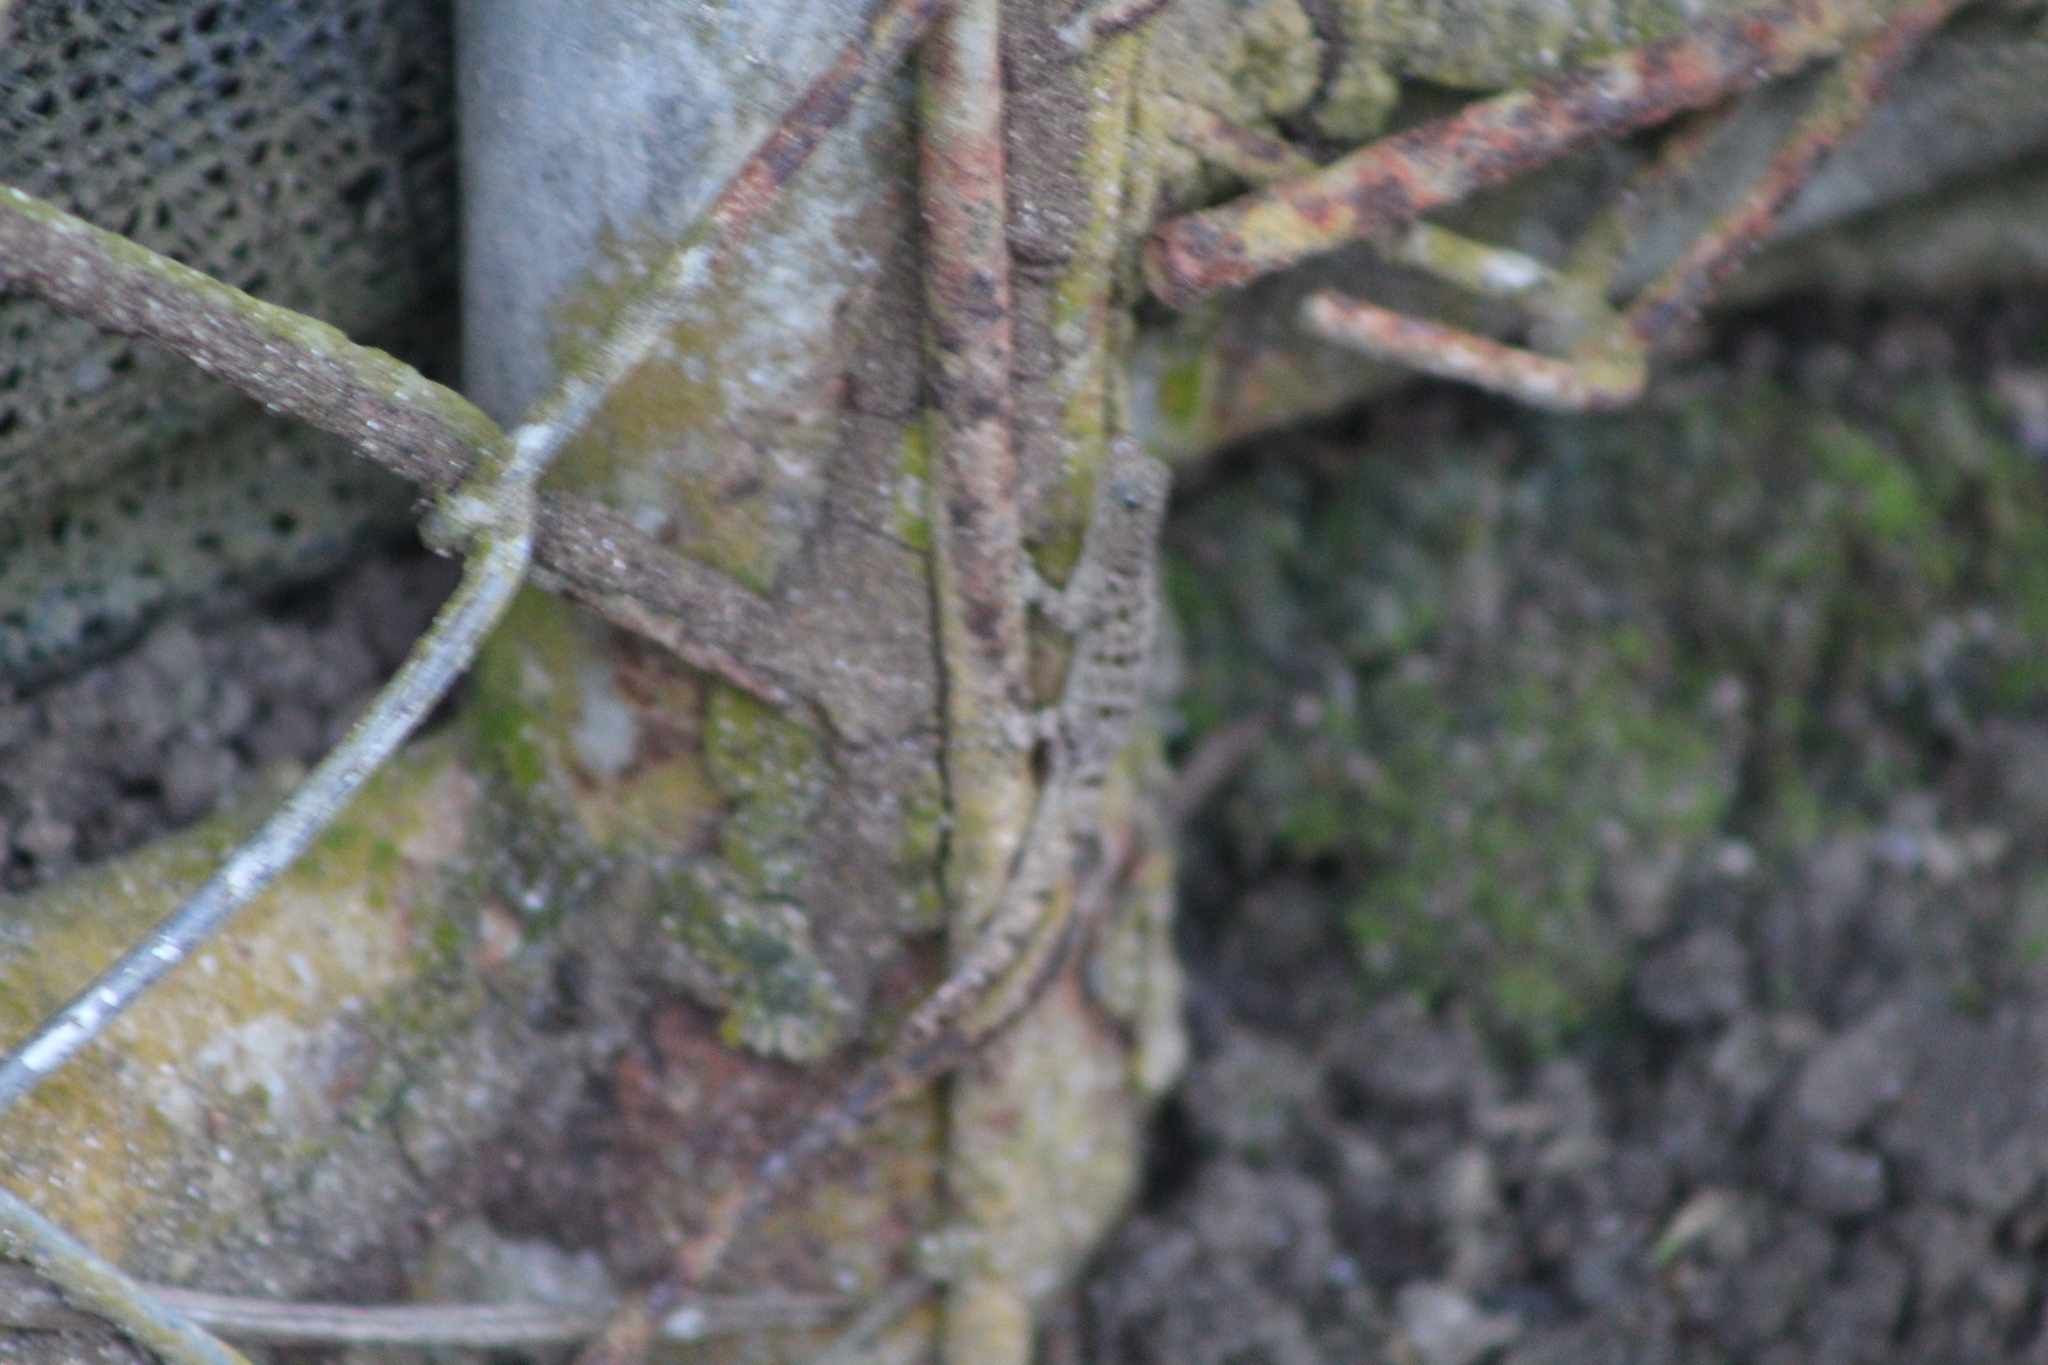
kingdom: Animalia
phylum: Chordata
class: Squamata
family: Sphaerodactylidae
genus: Gonatodes
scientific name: Gonatodes albogularis
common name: Yellow-headed gecko
